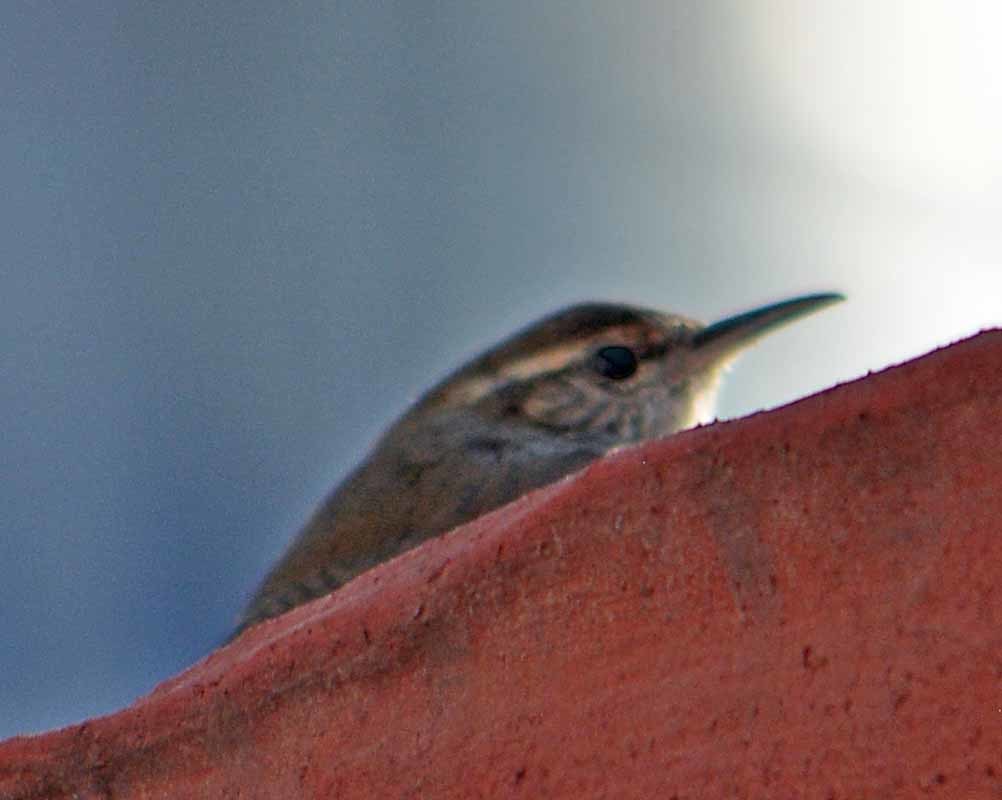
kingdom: Animalia
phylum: Chordata
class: Aves
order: Passeriformes
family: Troglodytidae
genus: Thryomanes
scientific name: Thryomanes bewickii
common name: Bewick's wren
